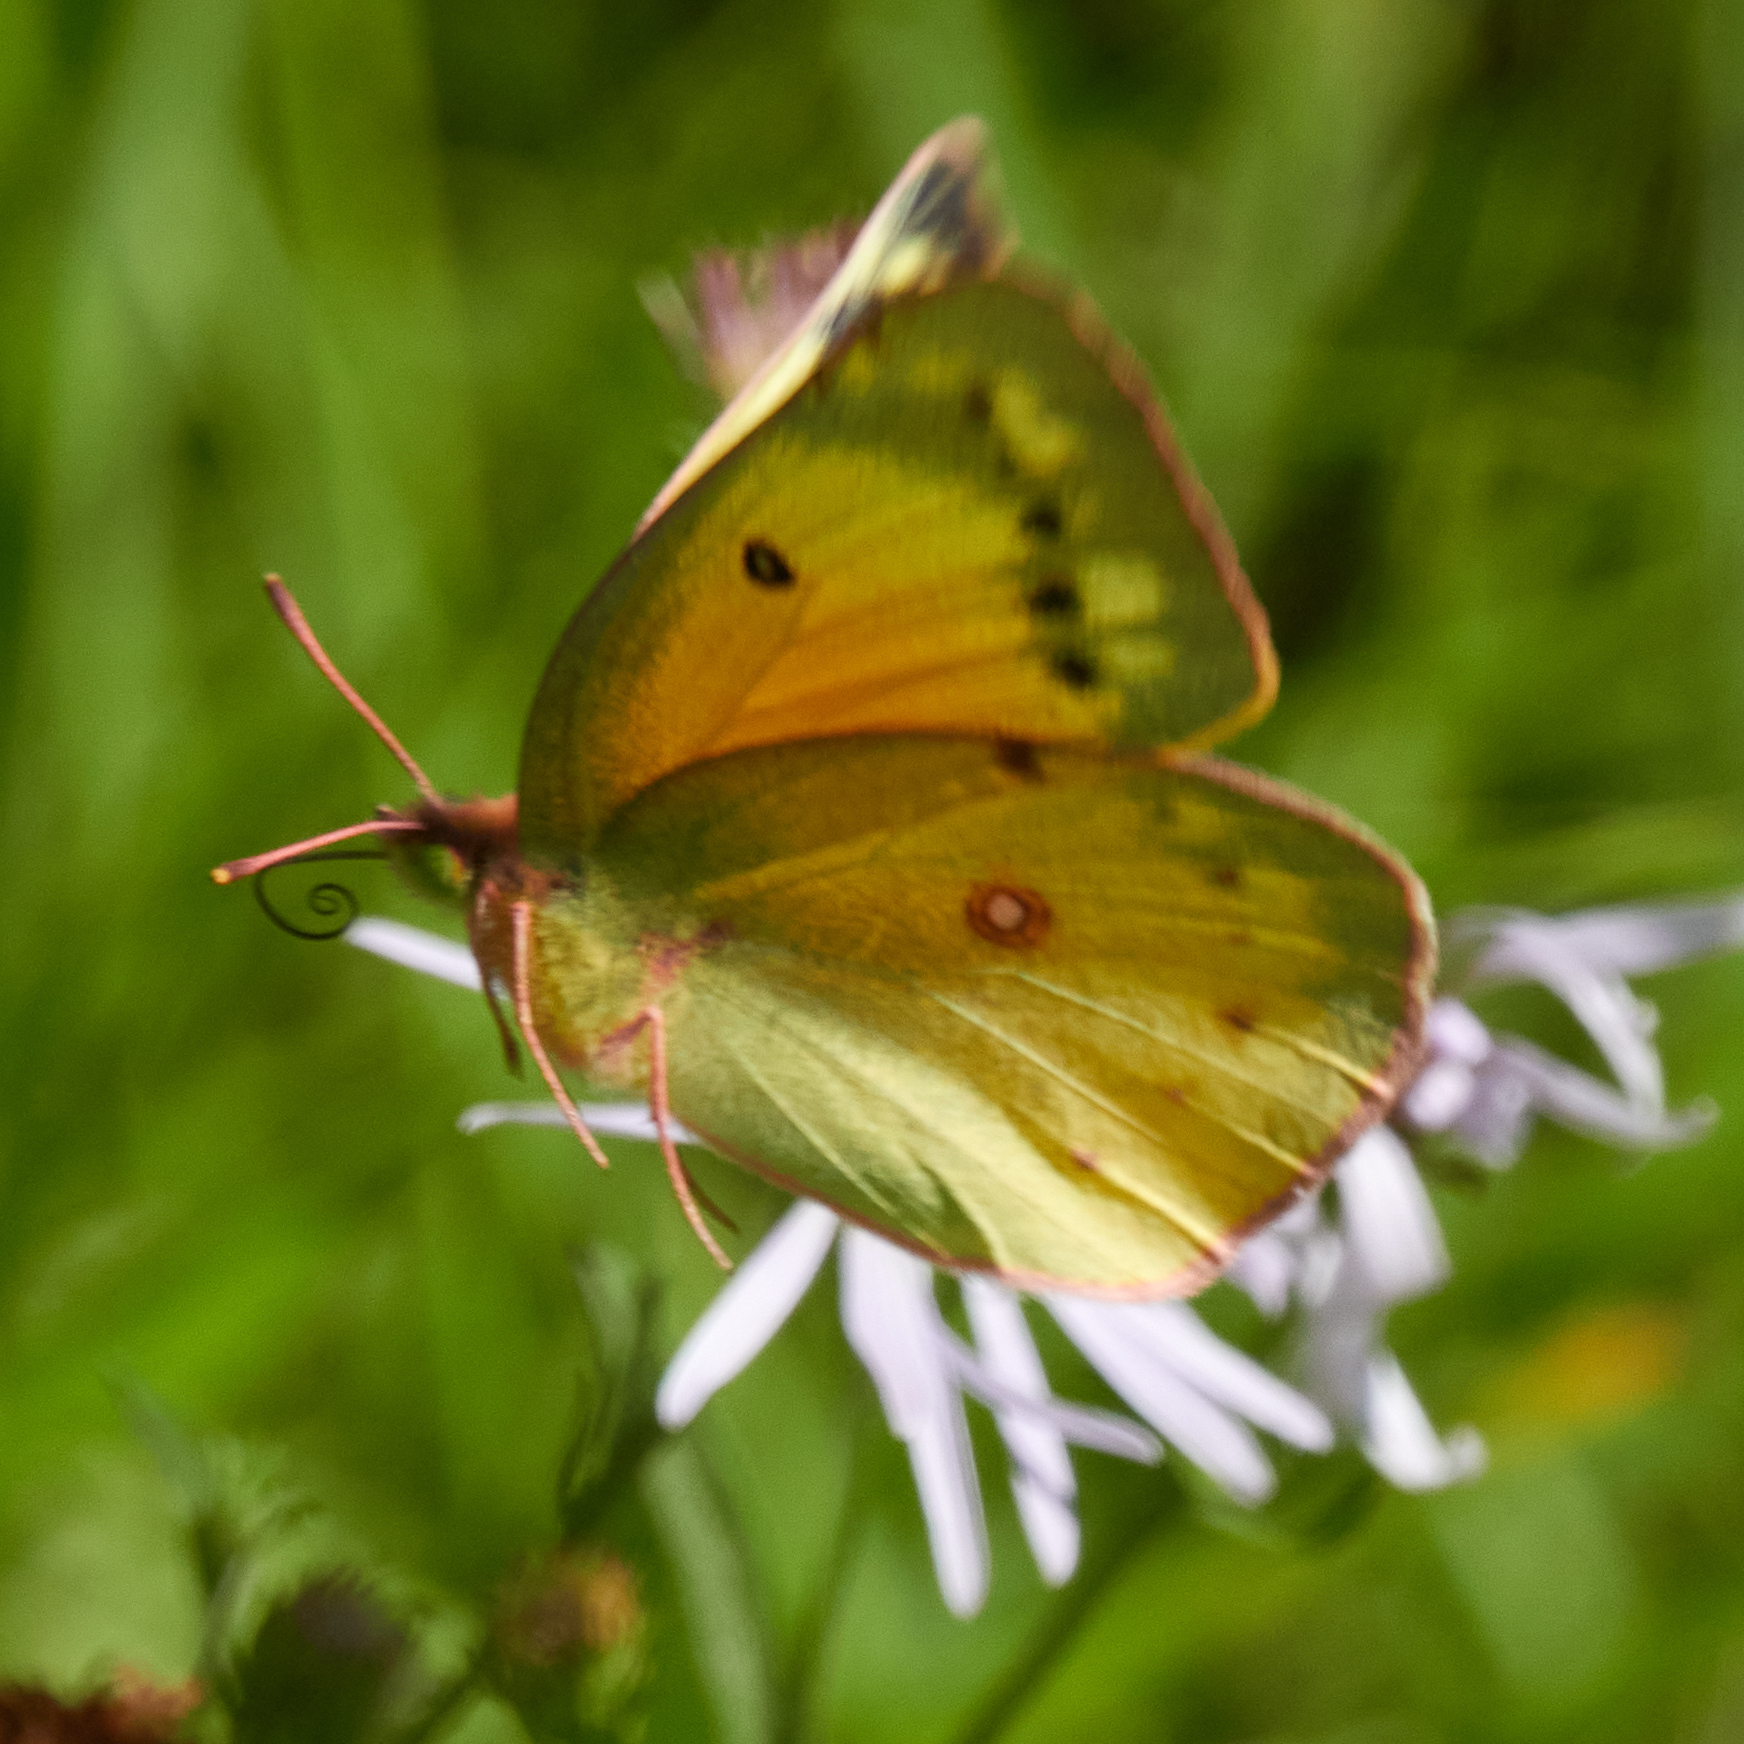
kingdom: Animalia
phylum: Arthropoda
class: Insecta
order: Lepidoptera
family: Pieridae
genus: Colias
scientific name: Colias eurytheme
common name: Alfalfa butterfly
